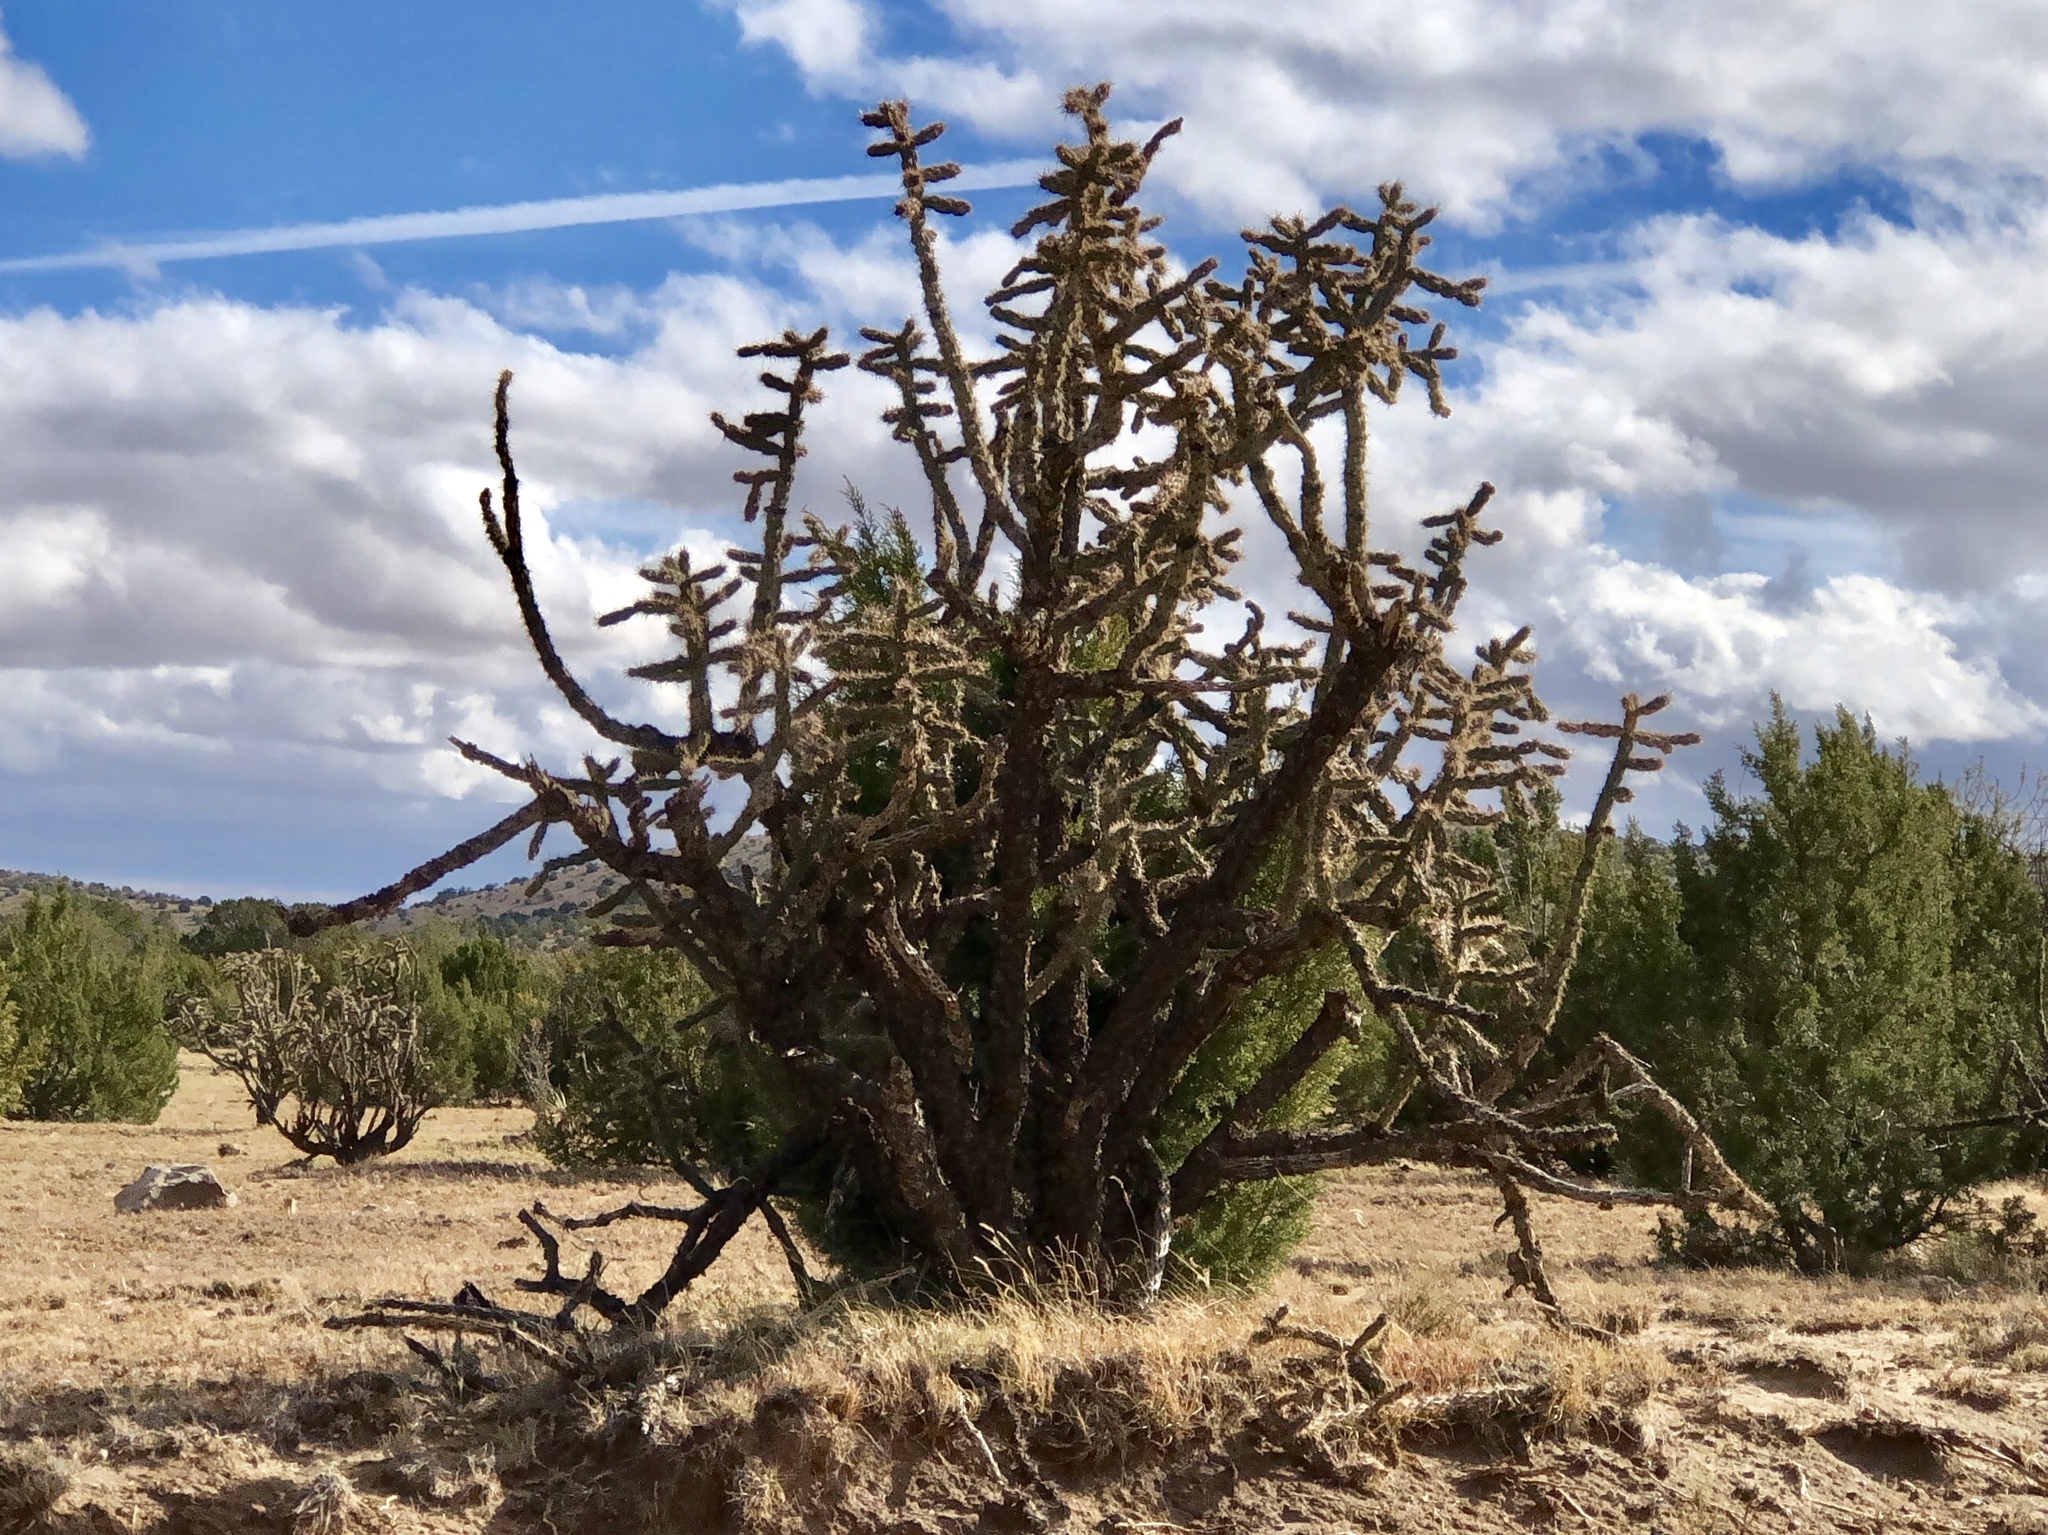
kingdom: Plantae
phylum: Tracheophyta
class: Magnoliopsida
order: Caryophyllales
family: Cactaceae
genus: Cylindropuntia
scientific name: Cylindropuntia imbricata
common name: Candelabrum cactus
